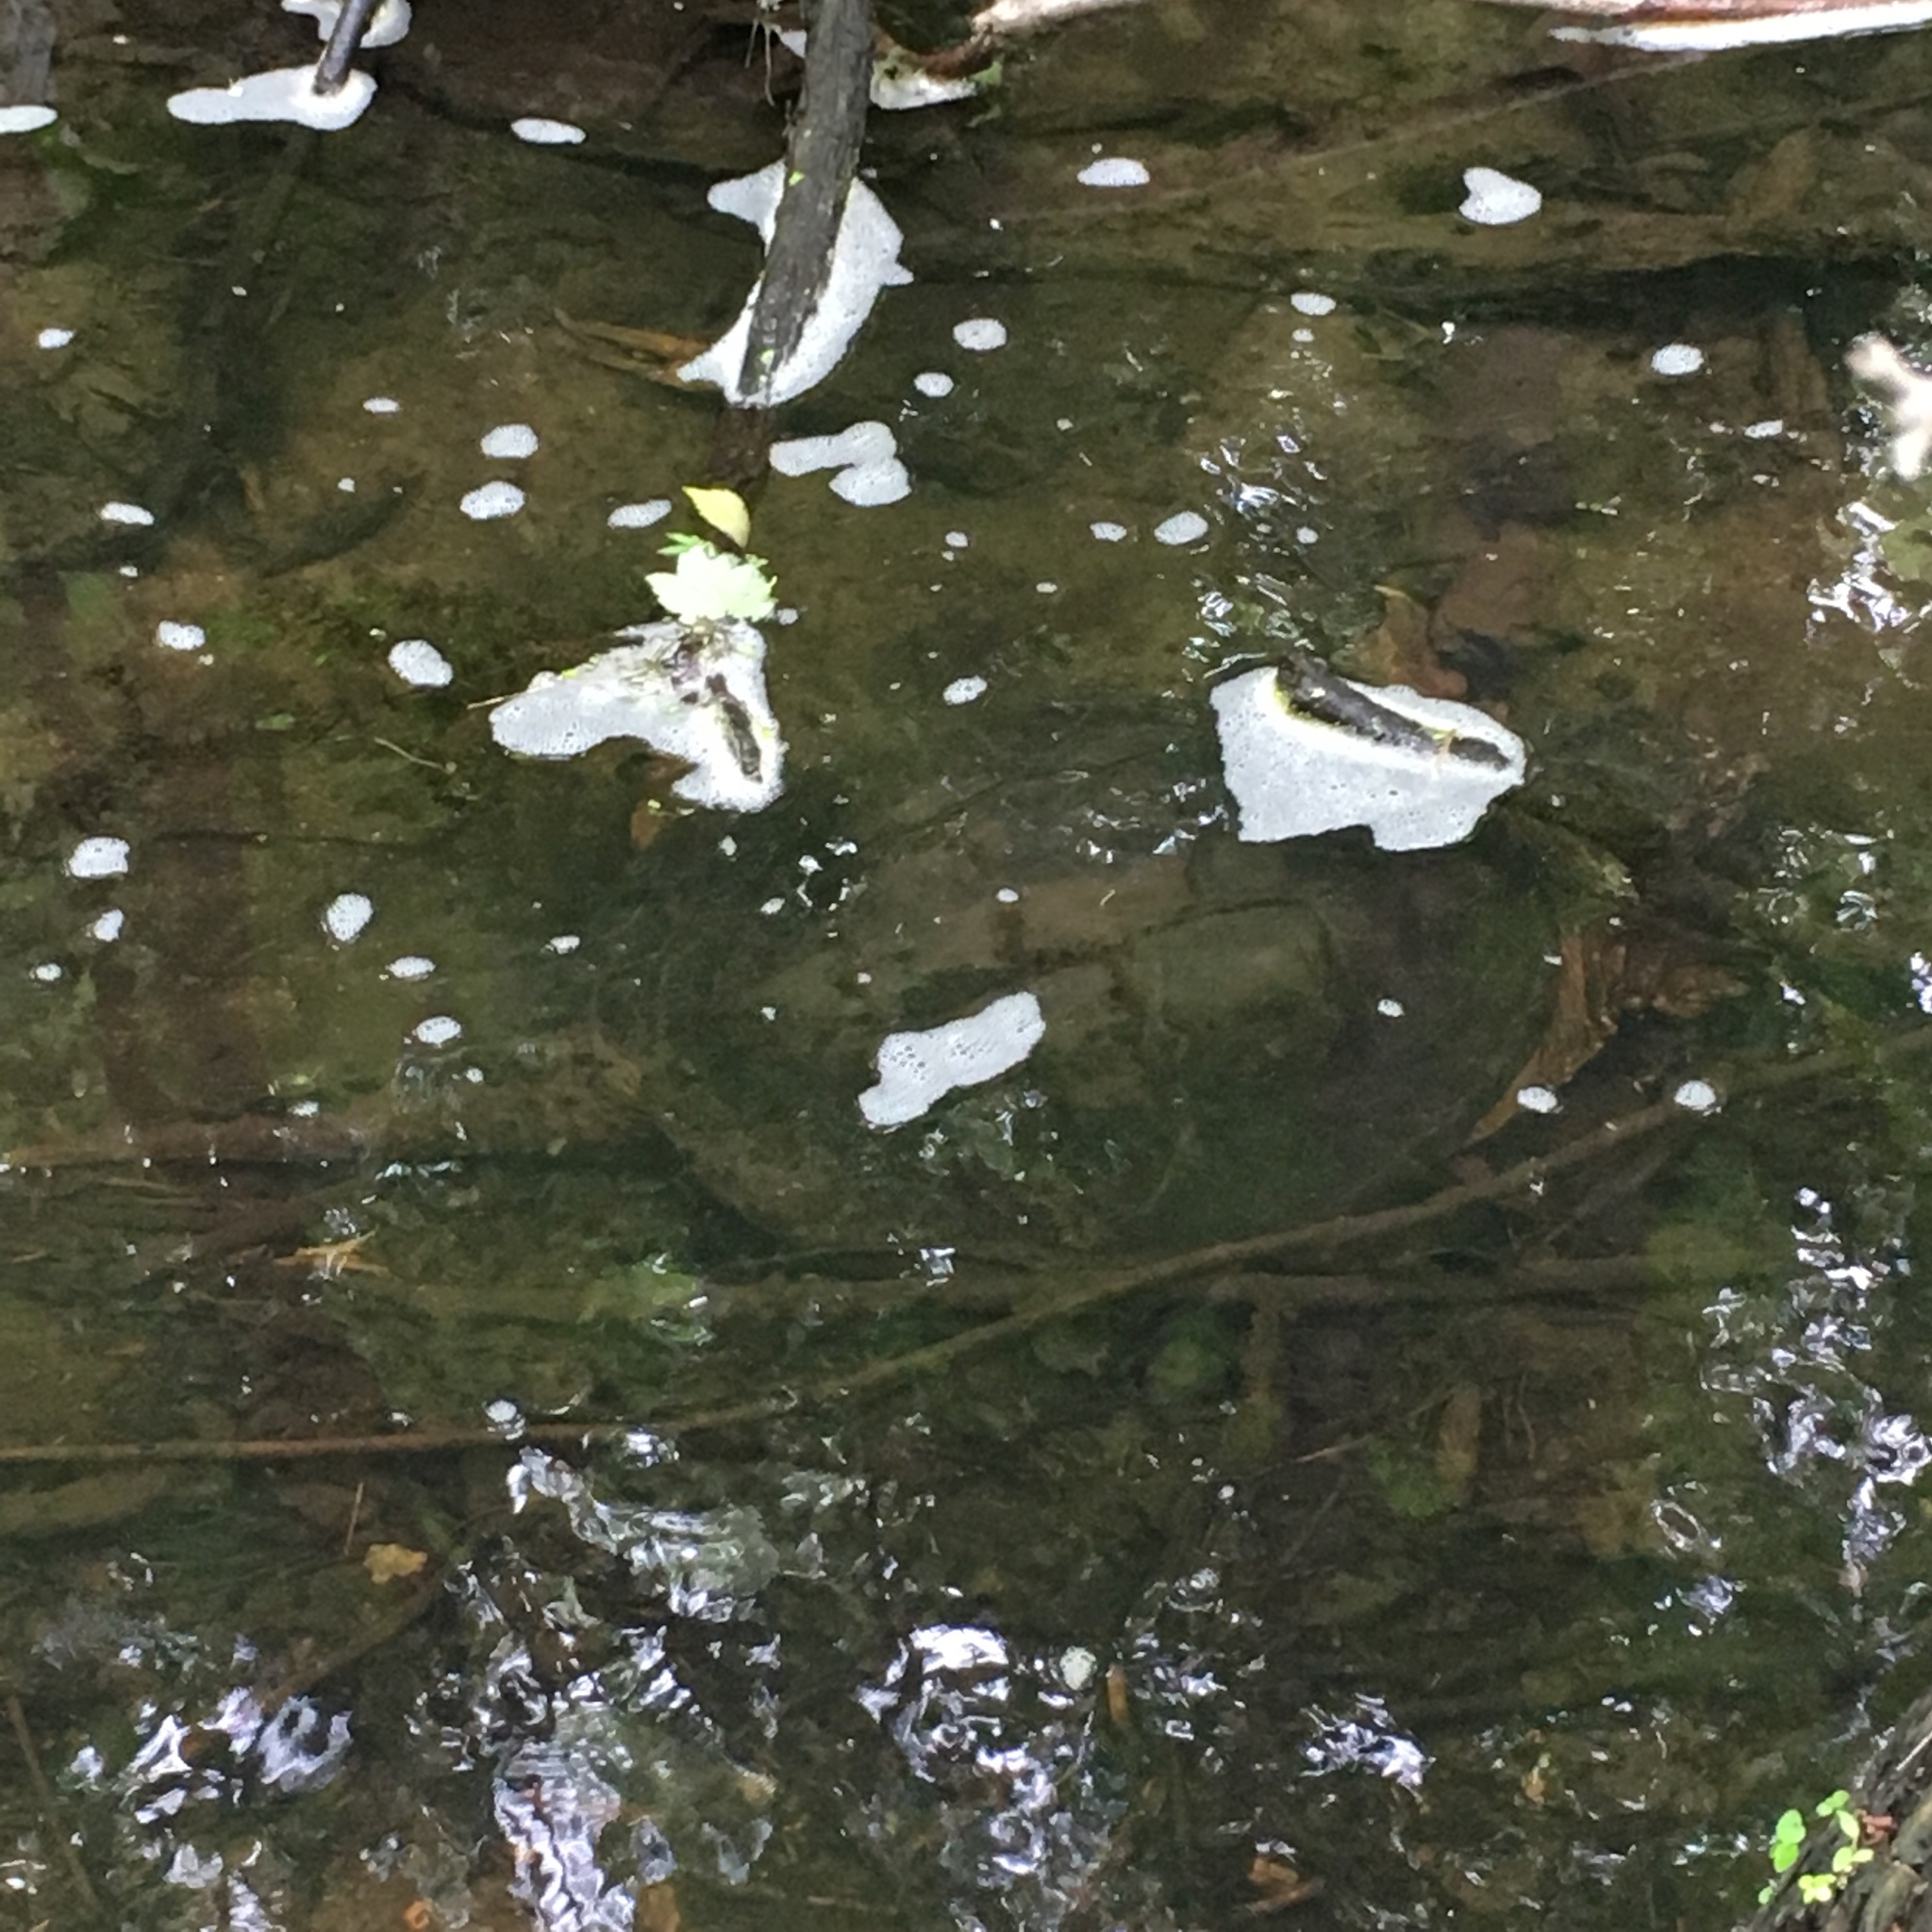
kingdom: Animalia
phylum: Chordata
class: Testudines
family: Chelydridae
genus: Chelydra
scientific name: Chelydra serpentina
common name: Common snapping turtle
